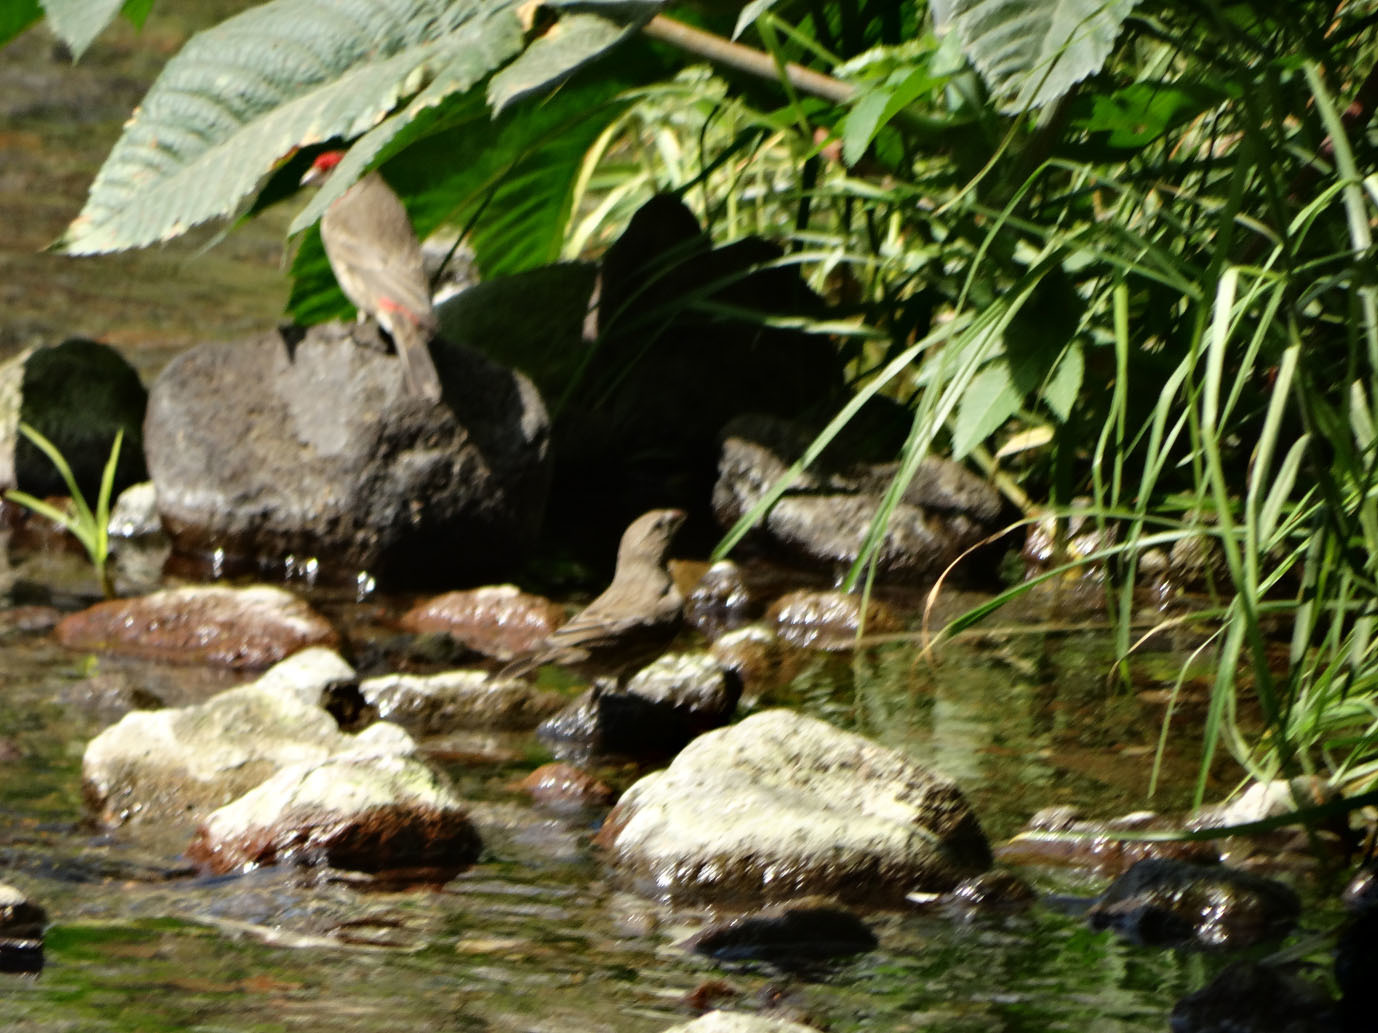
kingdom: Animalia
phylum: Chordata
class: Aves
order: Passeriformes
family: Fringillidae
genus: Haemorhous
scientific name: Haemorhous mexicanus
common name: House finch
